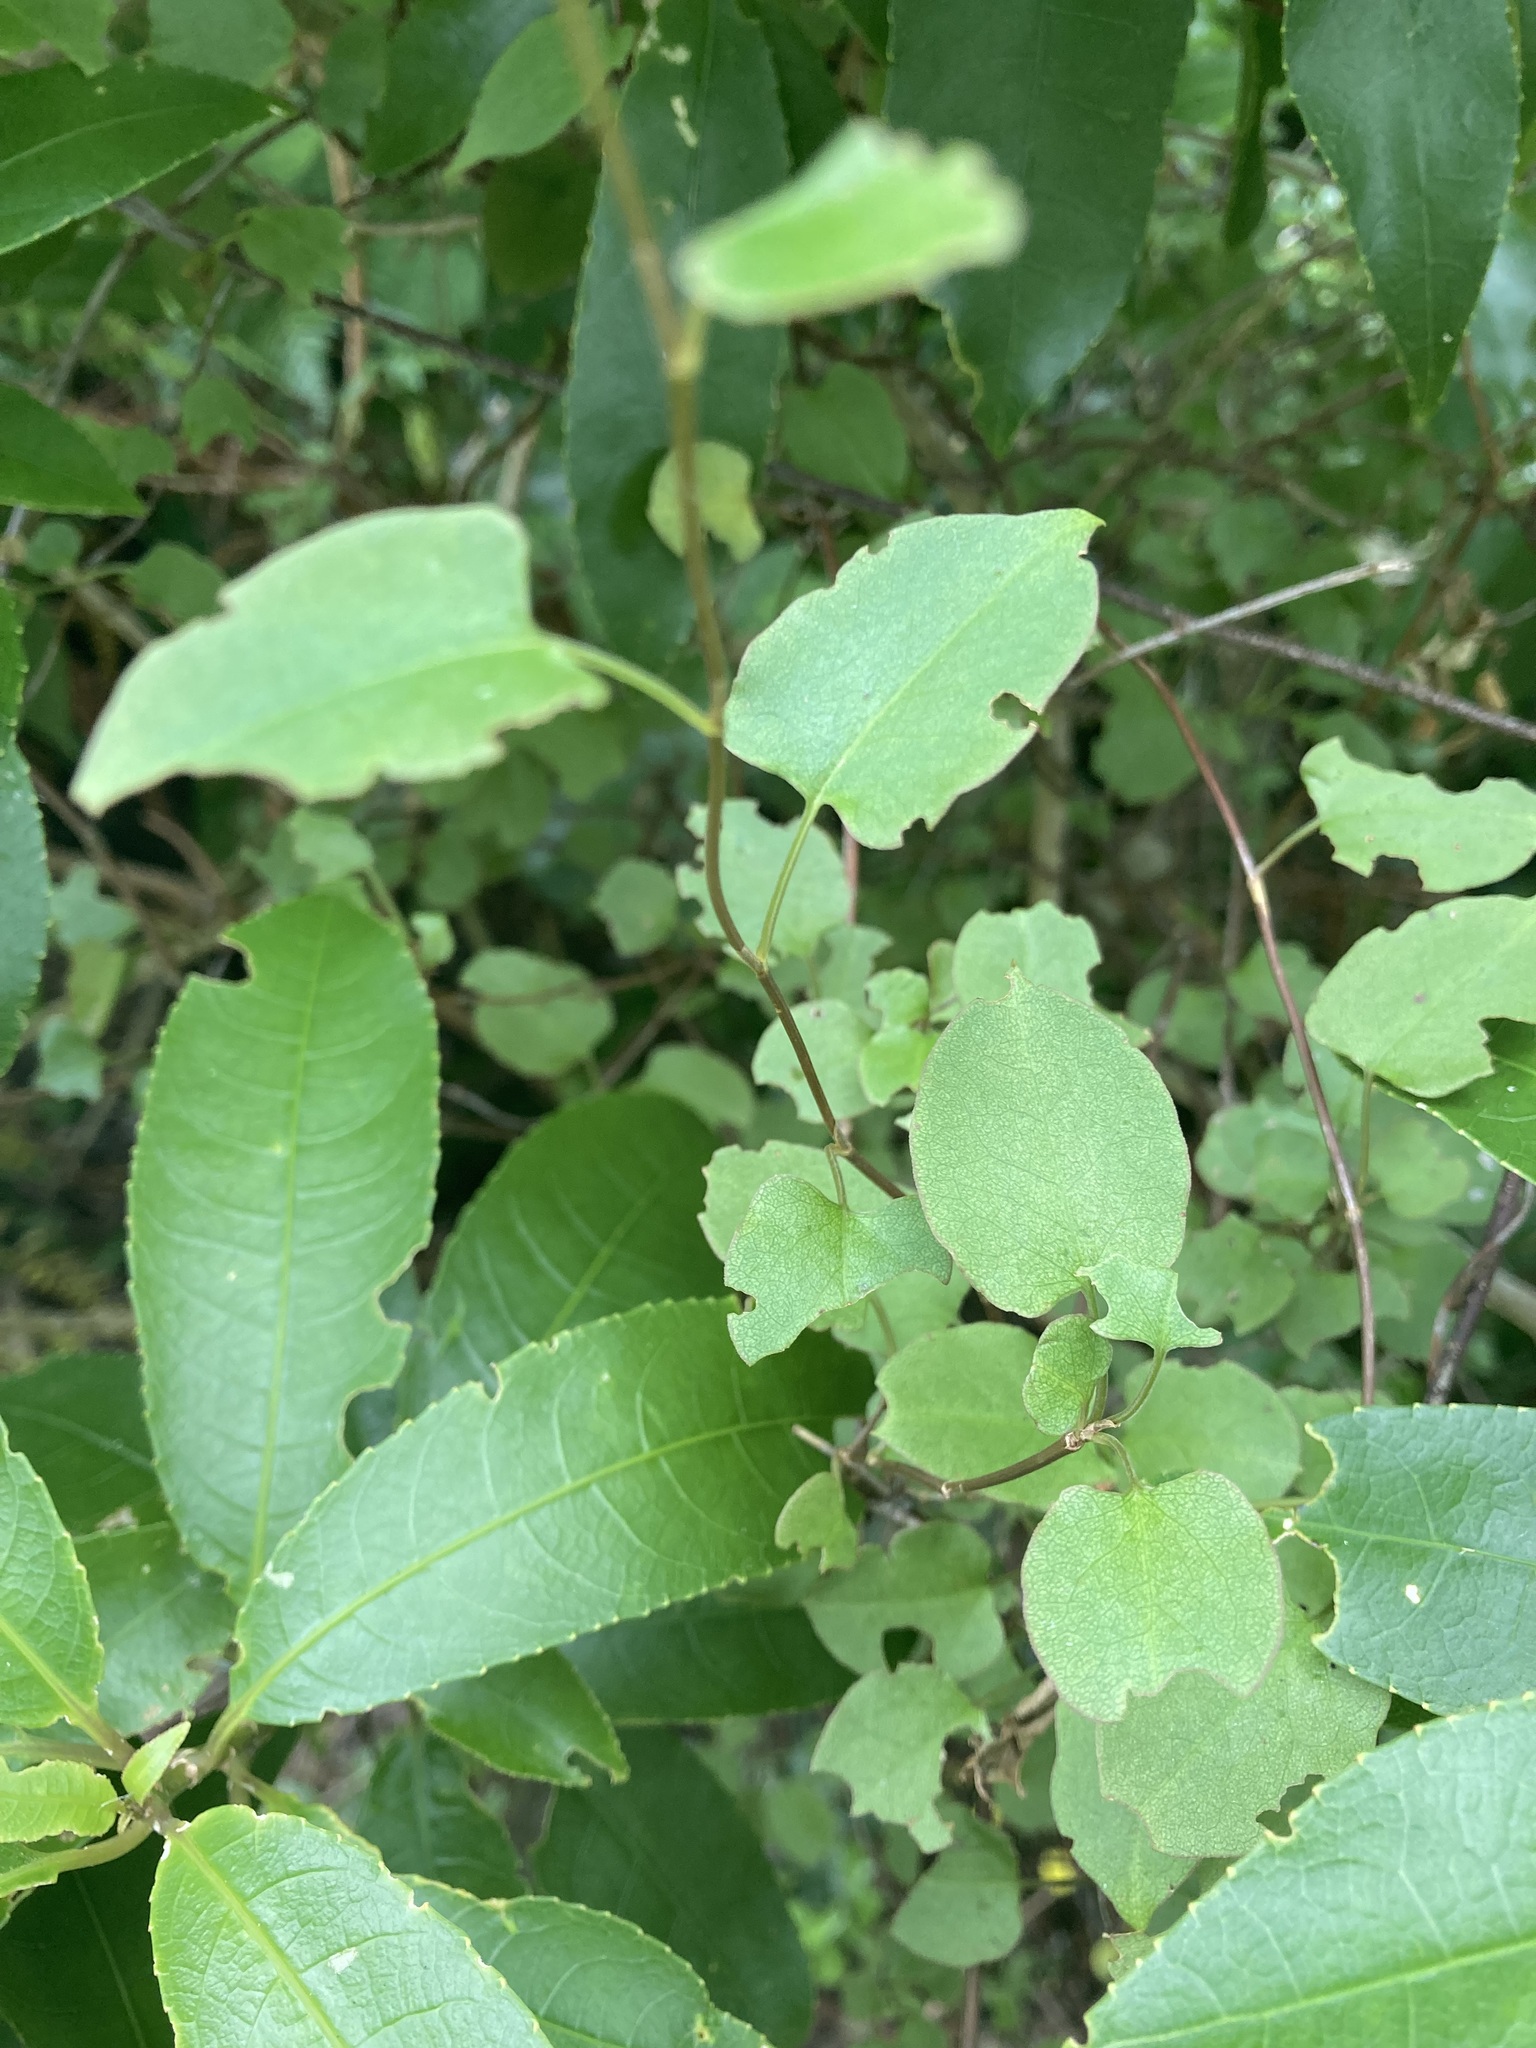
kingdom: Plantae
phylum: Tracheophyta
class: Magnoliopsida
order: Caryophyllales
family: Polygonaceae
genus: Muehlenbeckia
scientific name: Muehlenbeckia australis
